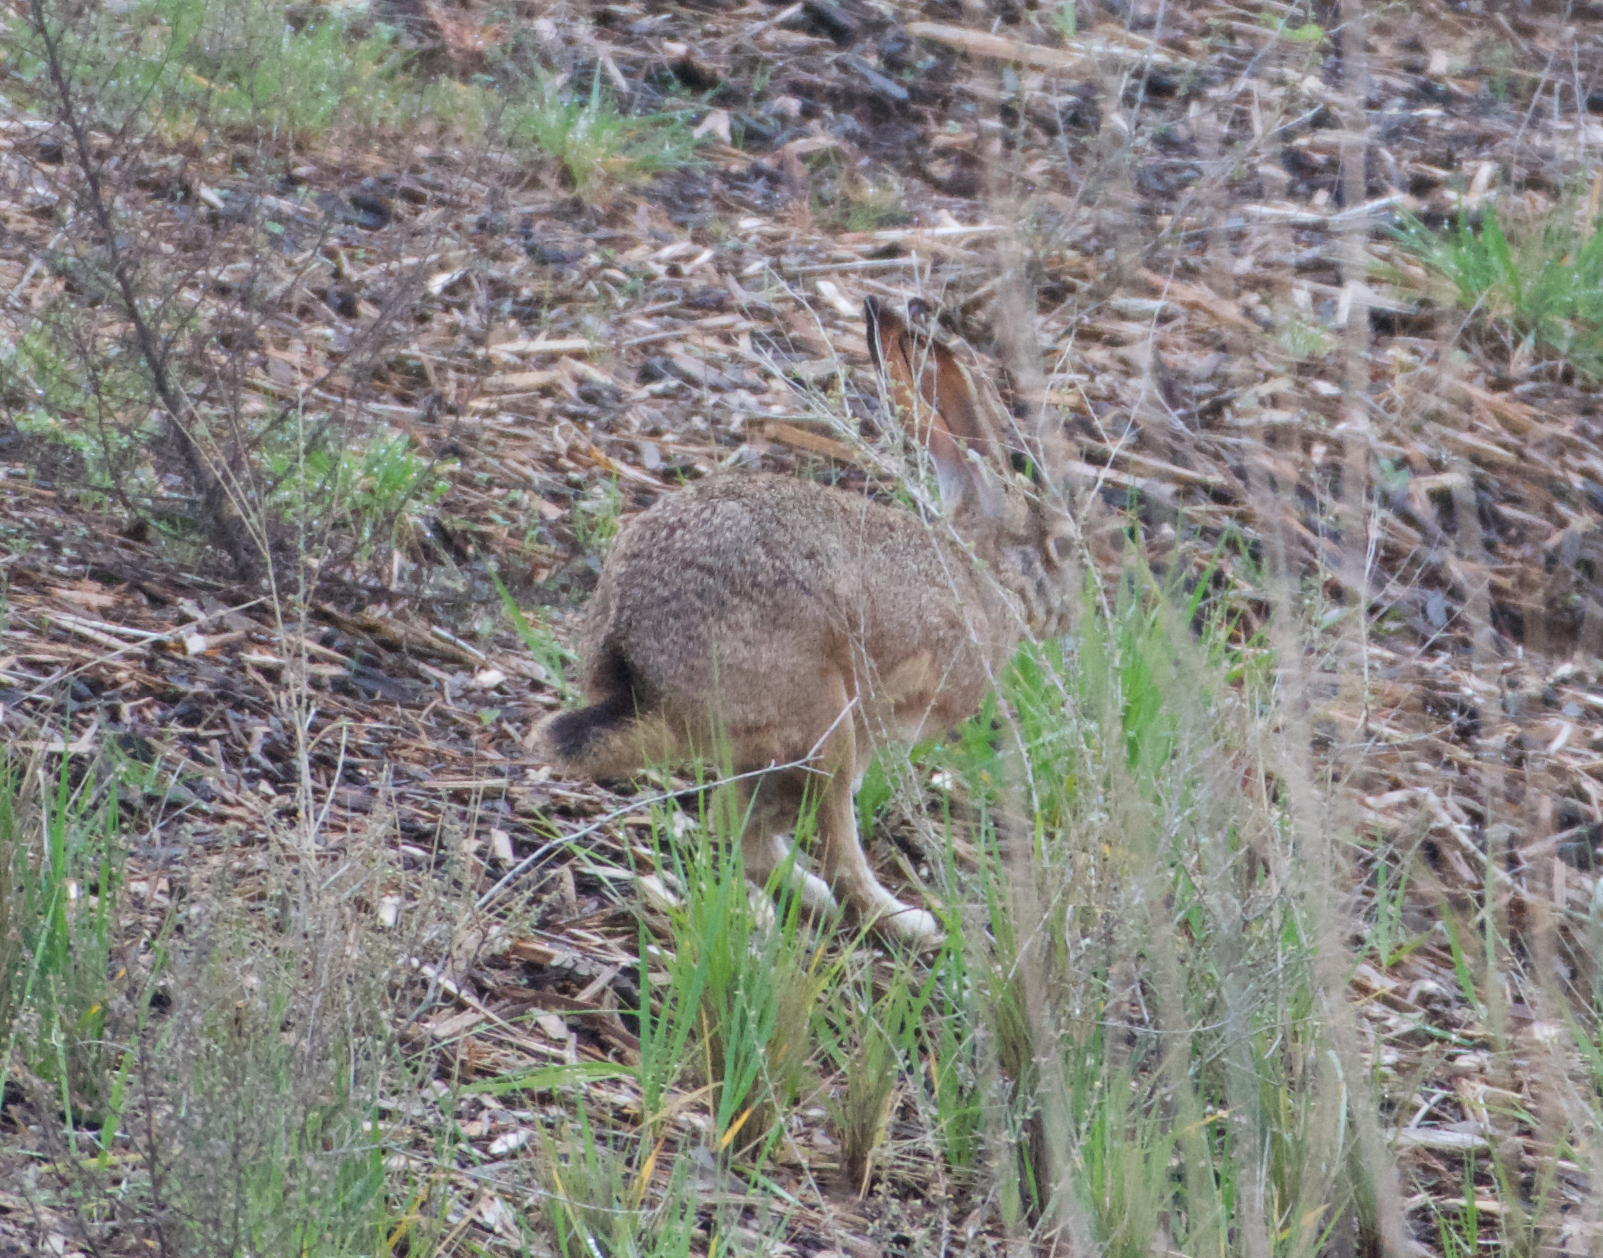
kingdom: Animalia
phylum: Chordata
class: Mammalia
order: Lagomorpha
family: Leporidae
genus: Lepus
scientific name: Lepus californicus
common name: Black-tailed jackrabbit
